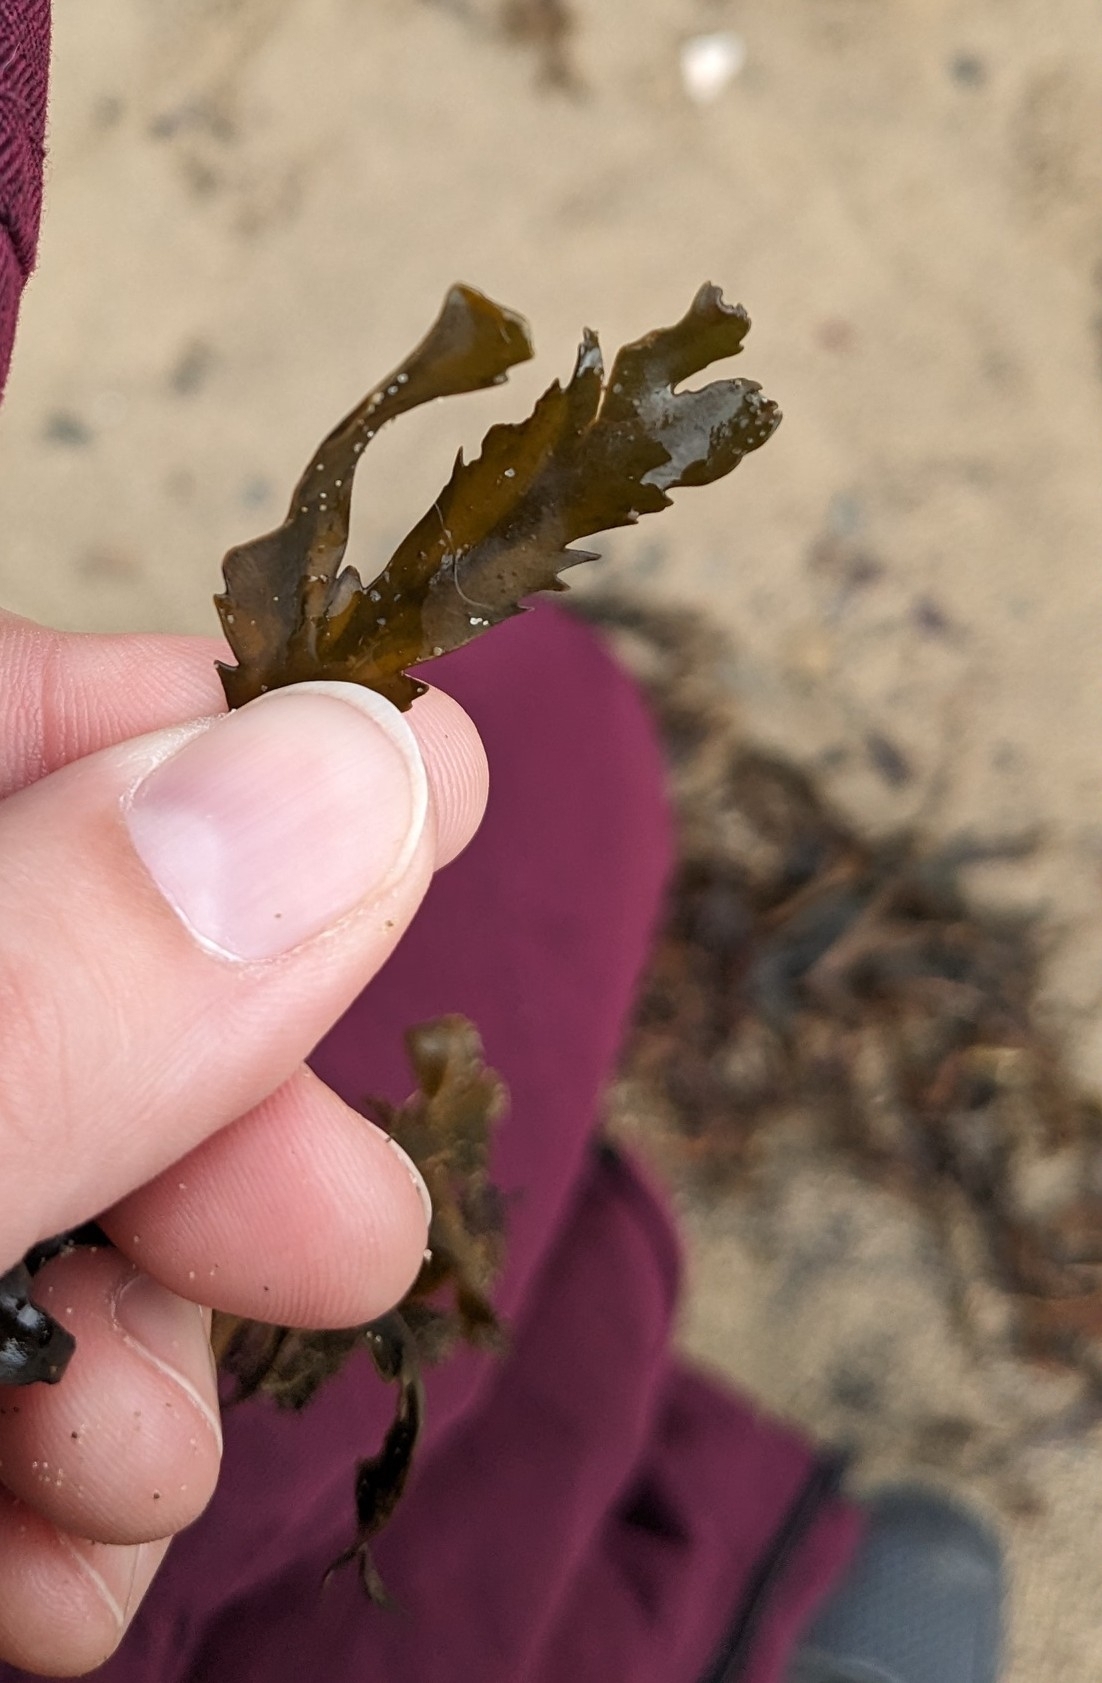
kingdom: Chromista
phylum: Ochrophyta
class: Phaeophyceae
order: Fucales
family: Fucaceae
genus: Fucus
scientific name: Fucus serratus
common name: Toothed wrack
